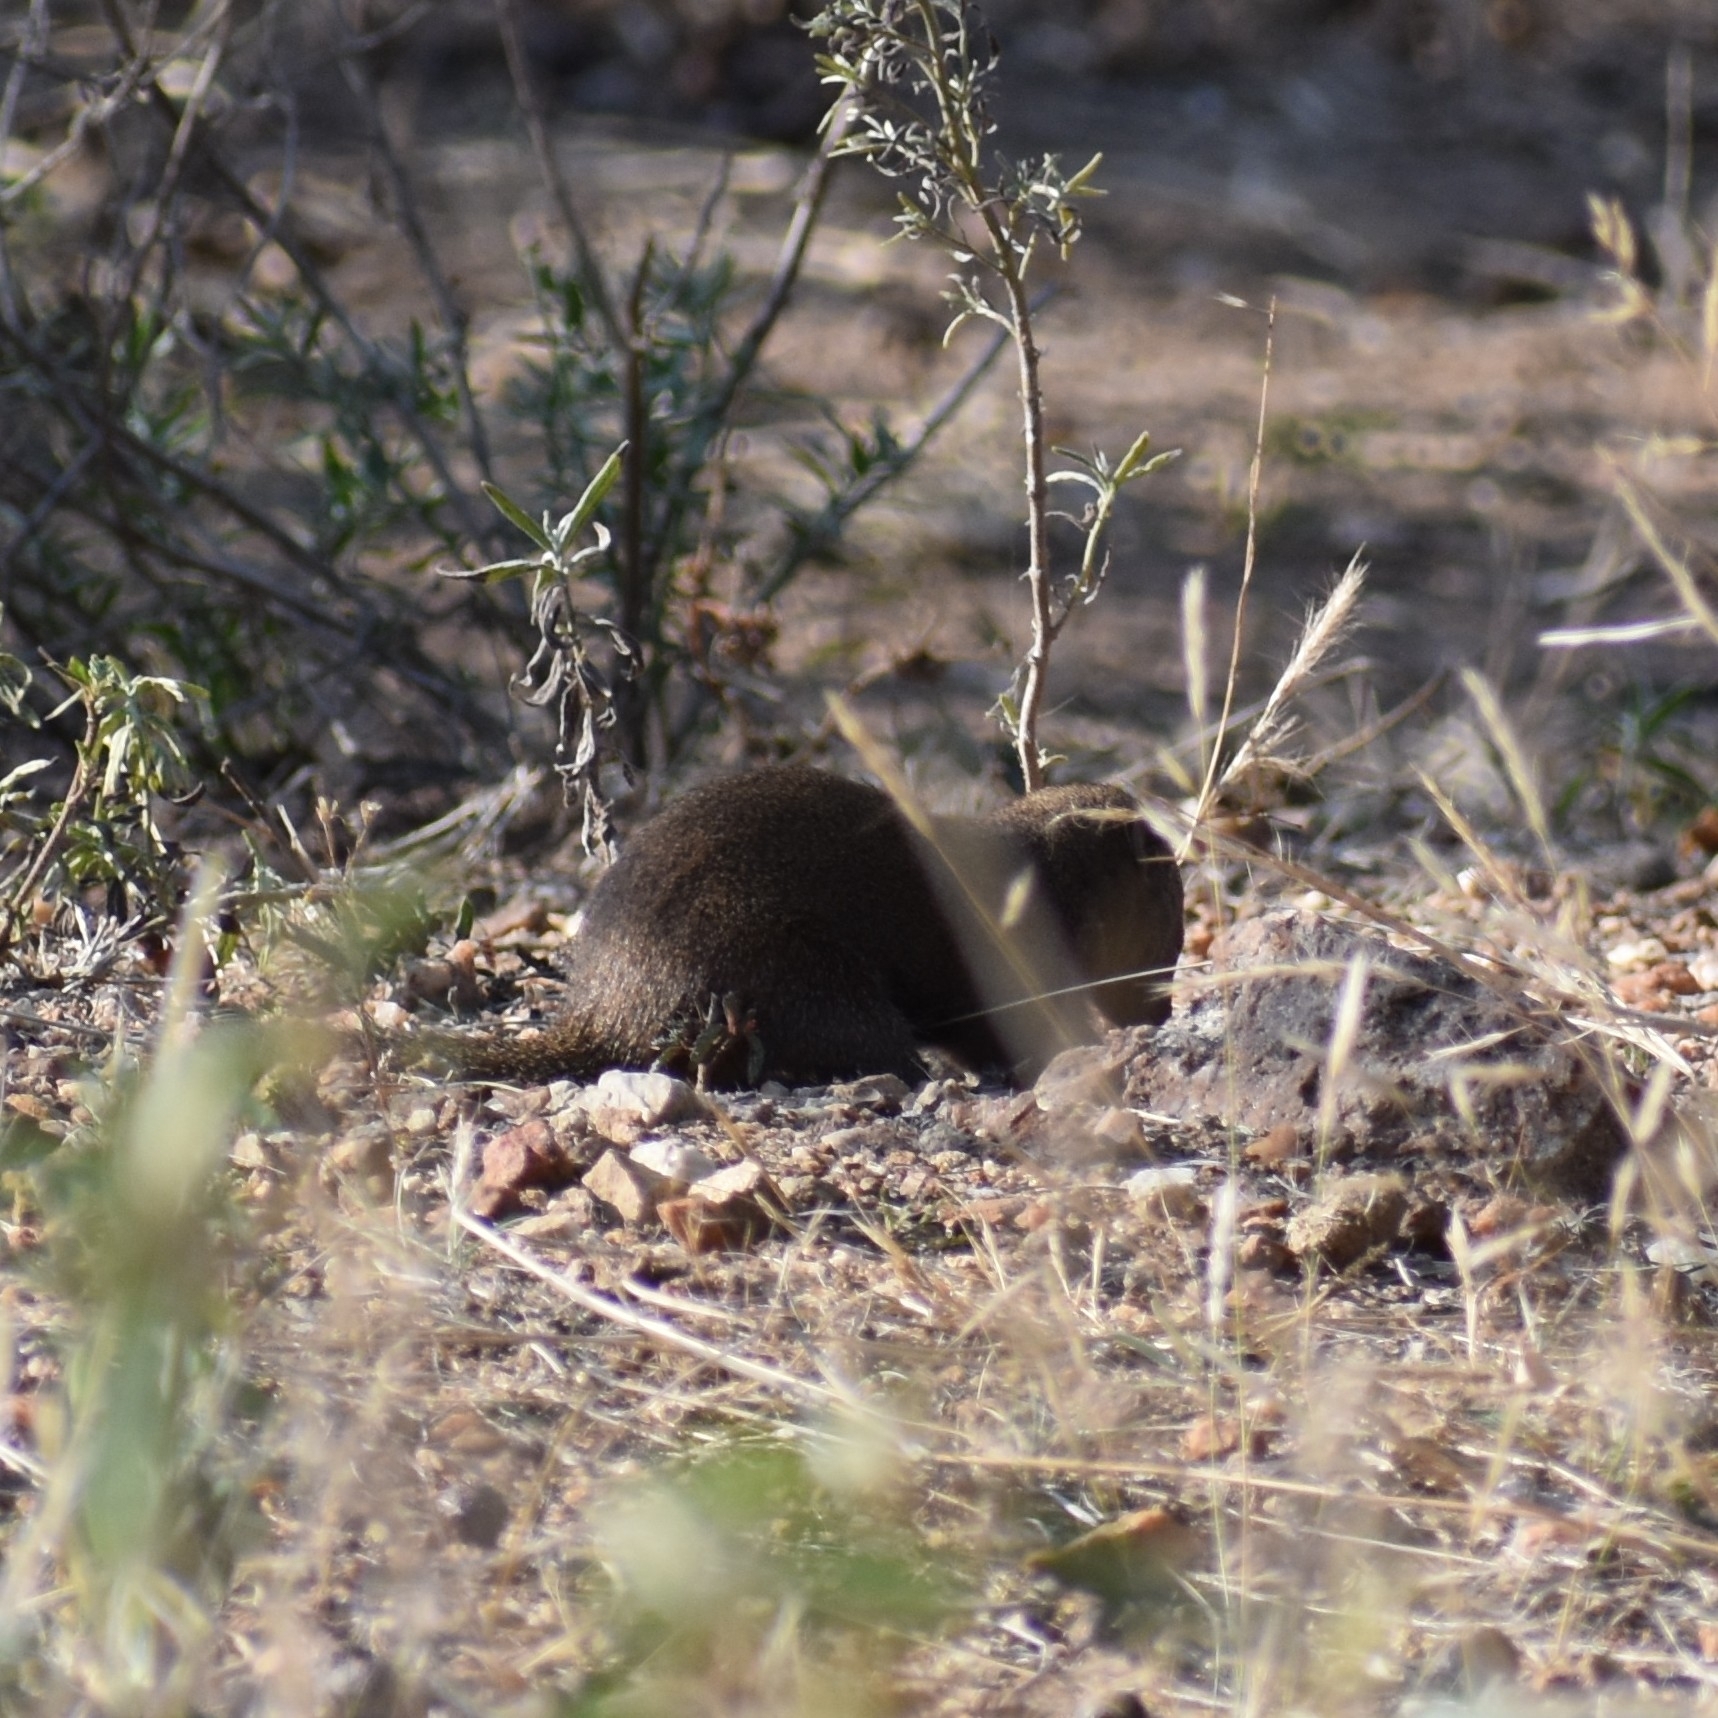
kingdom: Animalia
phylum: Chordata
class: Mammalia
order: Carnivora
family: Herpestidae
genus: Helogale
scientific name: Helogale parvula
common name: Common dwarf mongoose
